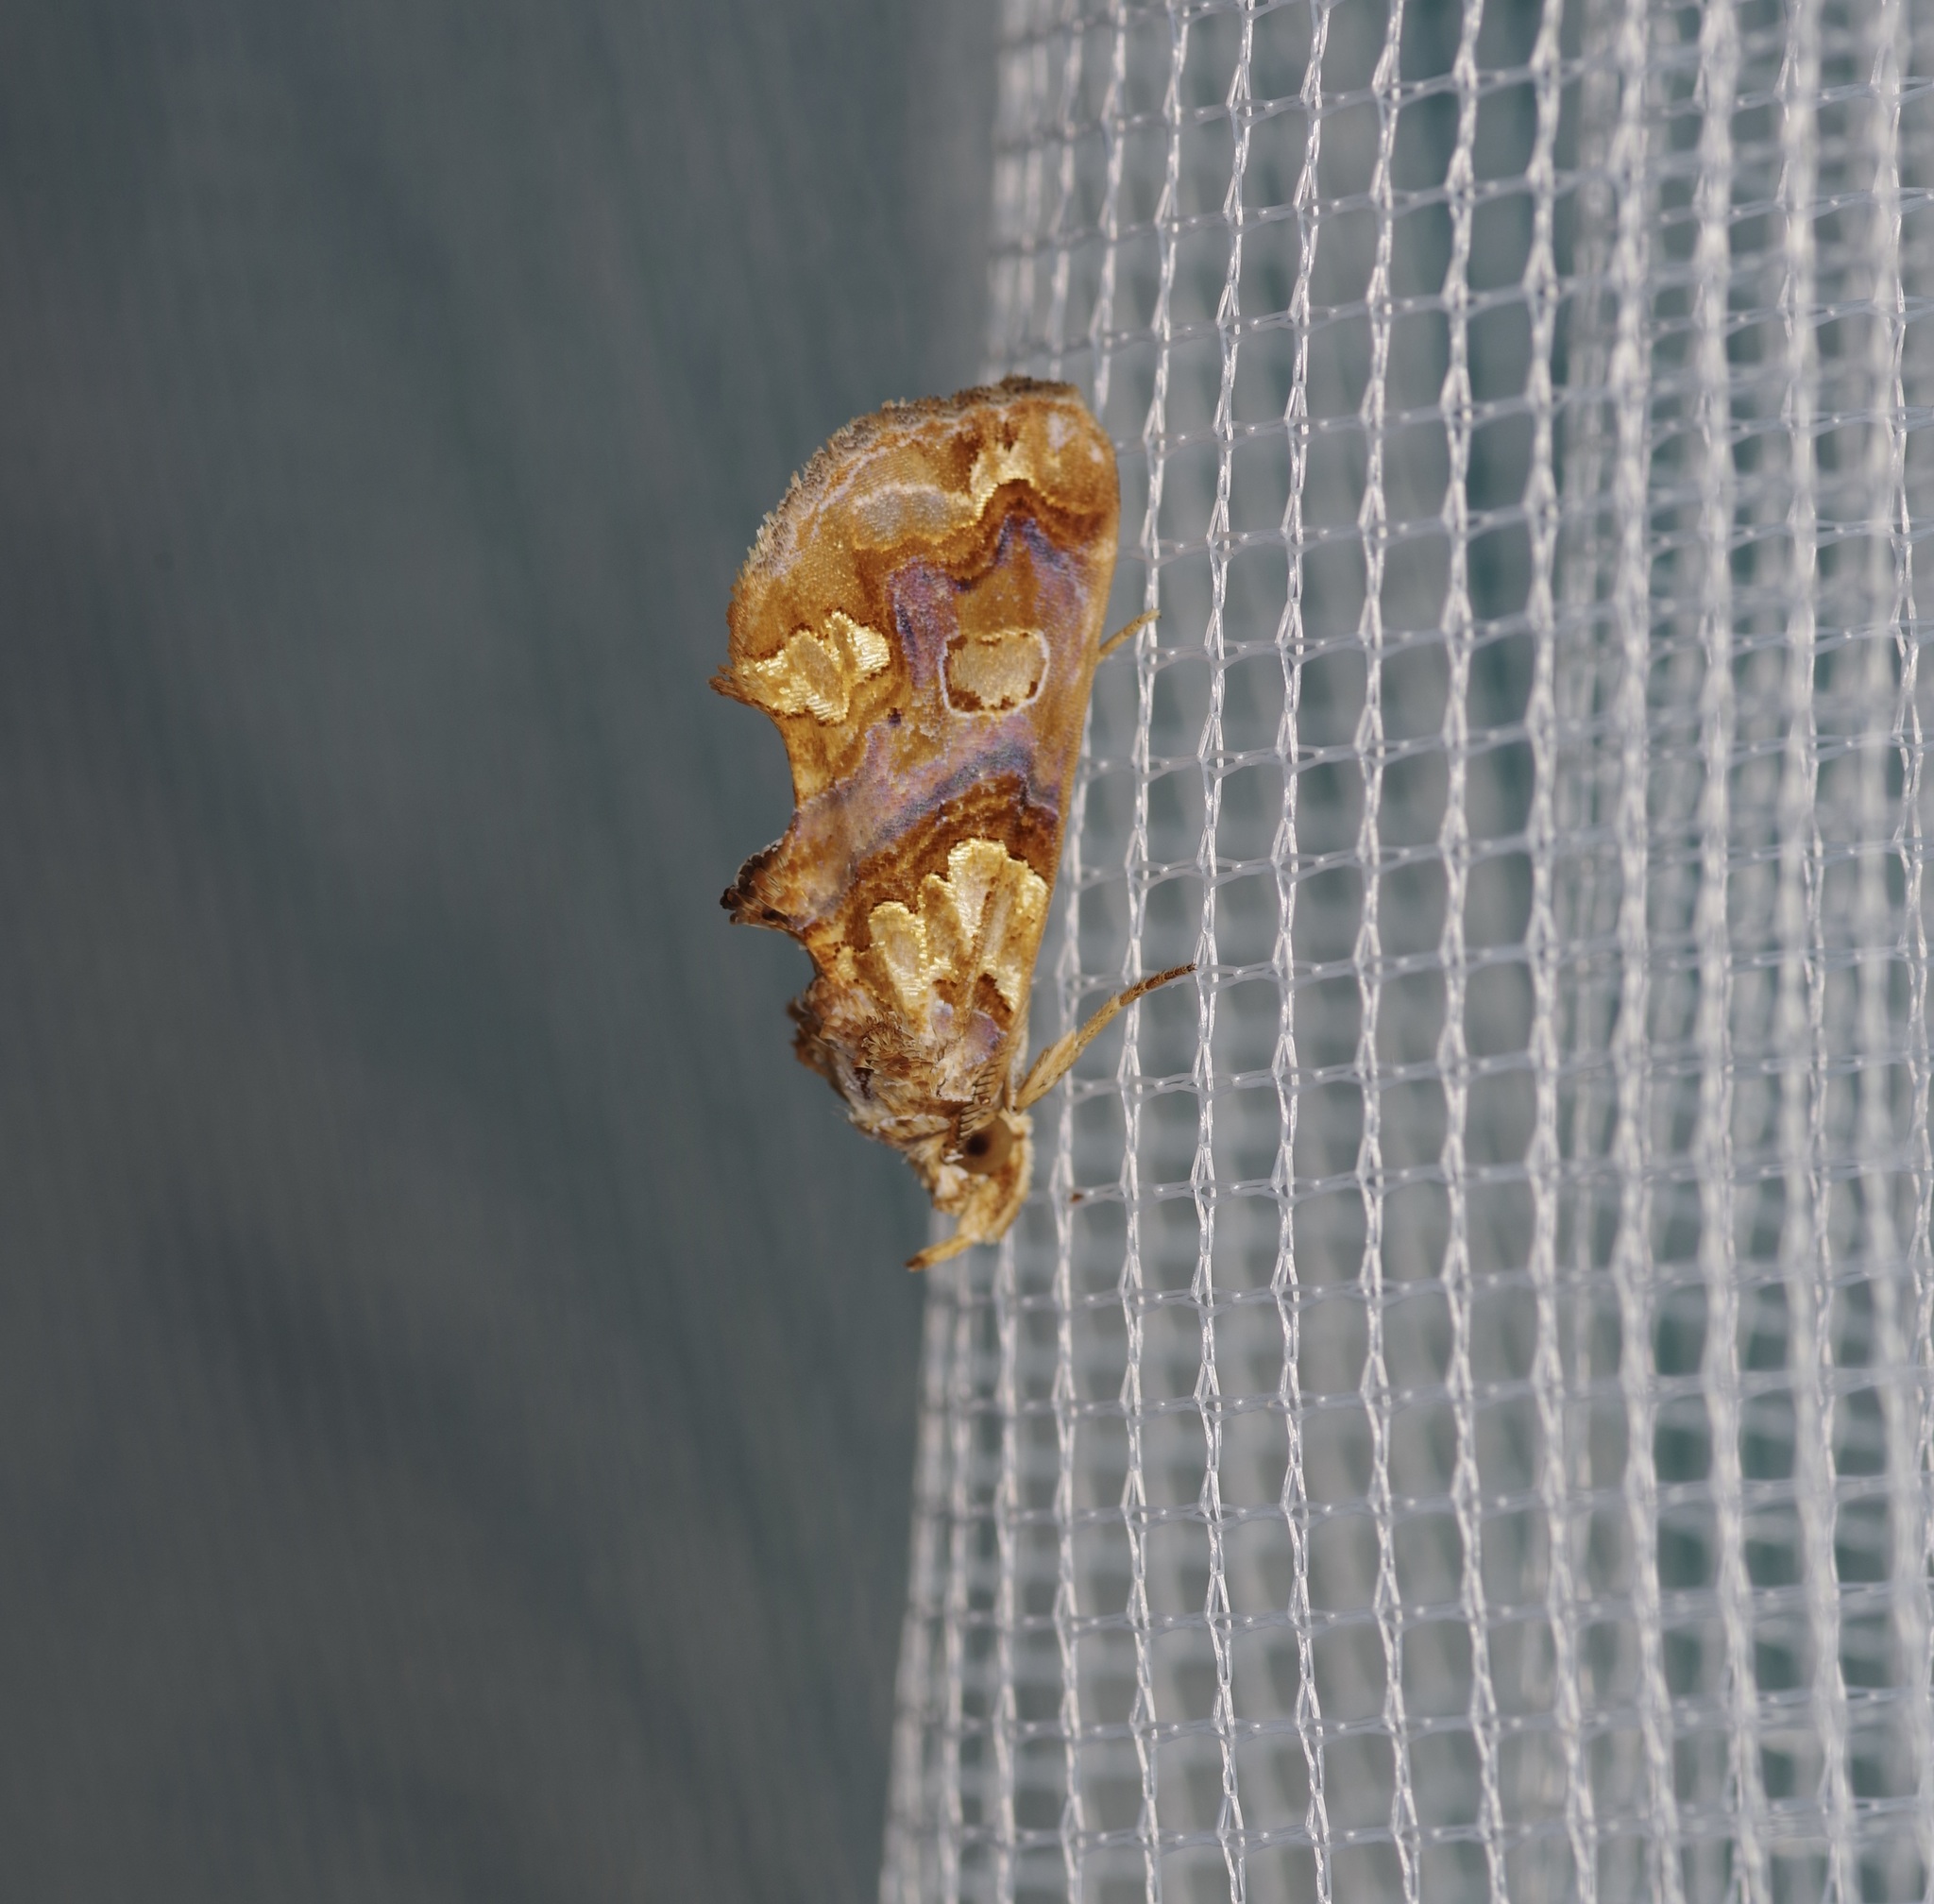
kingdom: Animalia
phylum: Arthropoda
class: Insecta
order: Lepidoptera
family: Erebidae
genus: Plusiodonta
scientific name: Plusiodonta compressipalpis
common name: Moonseed moth
